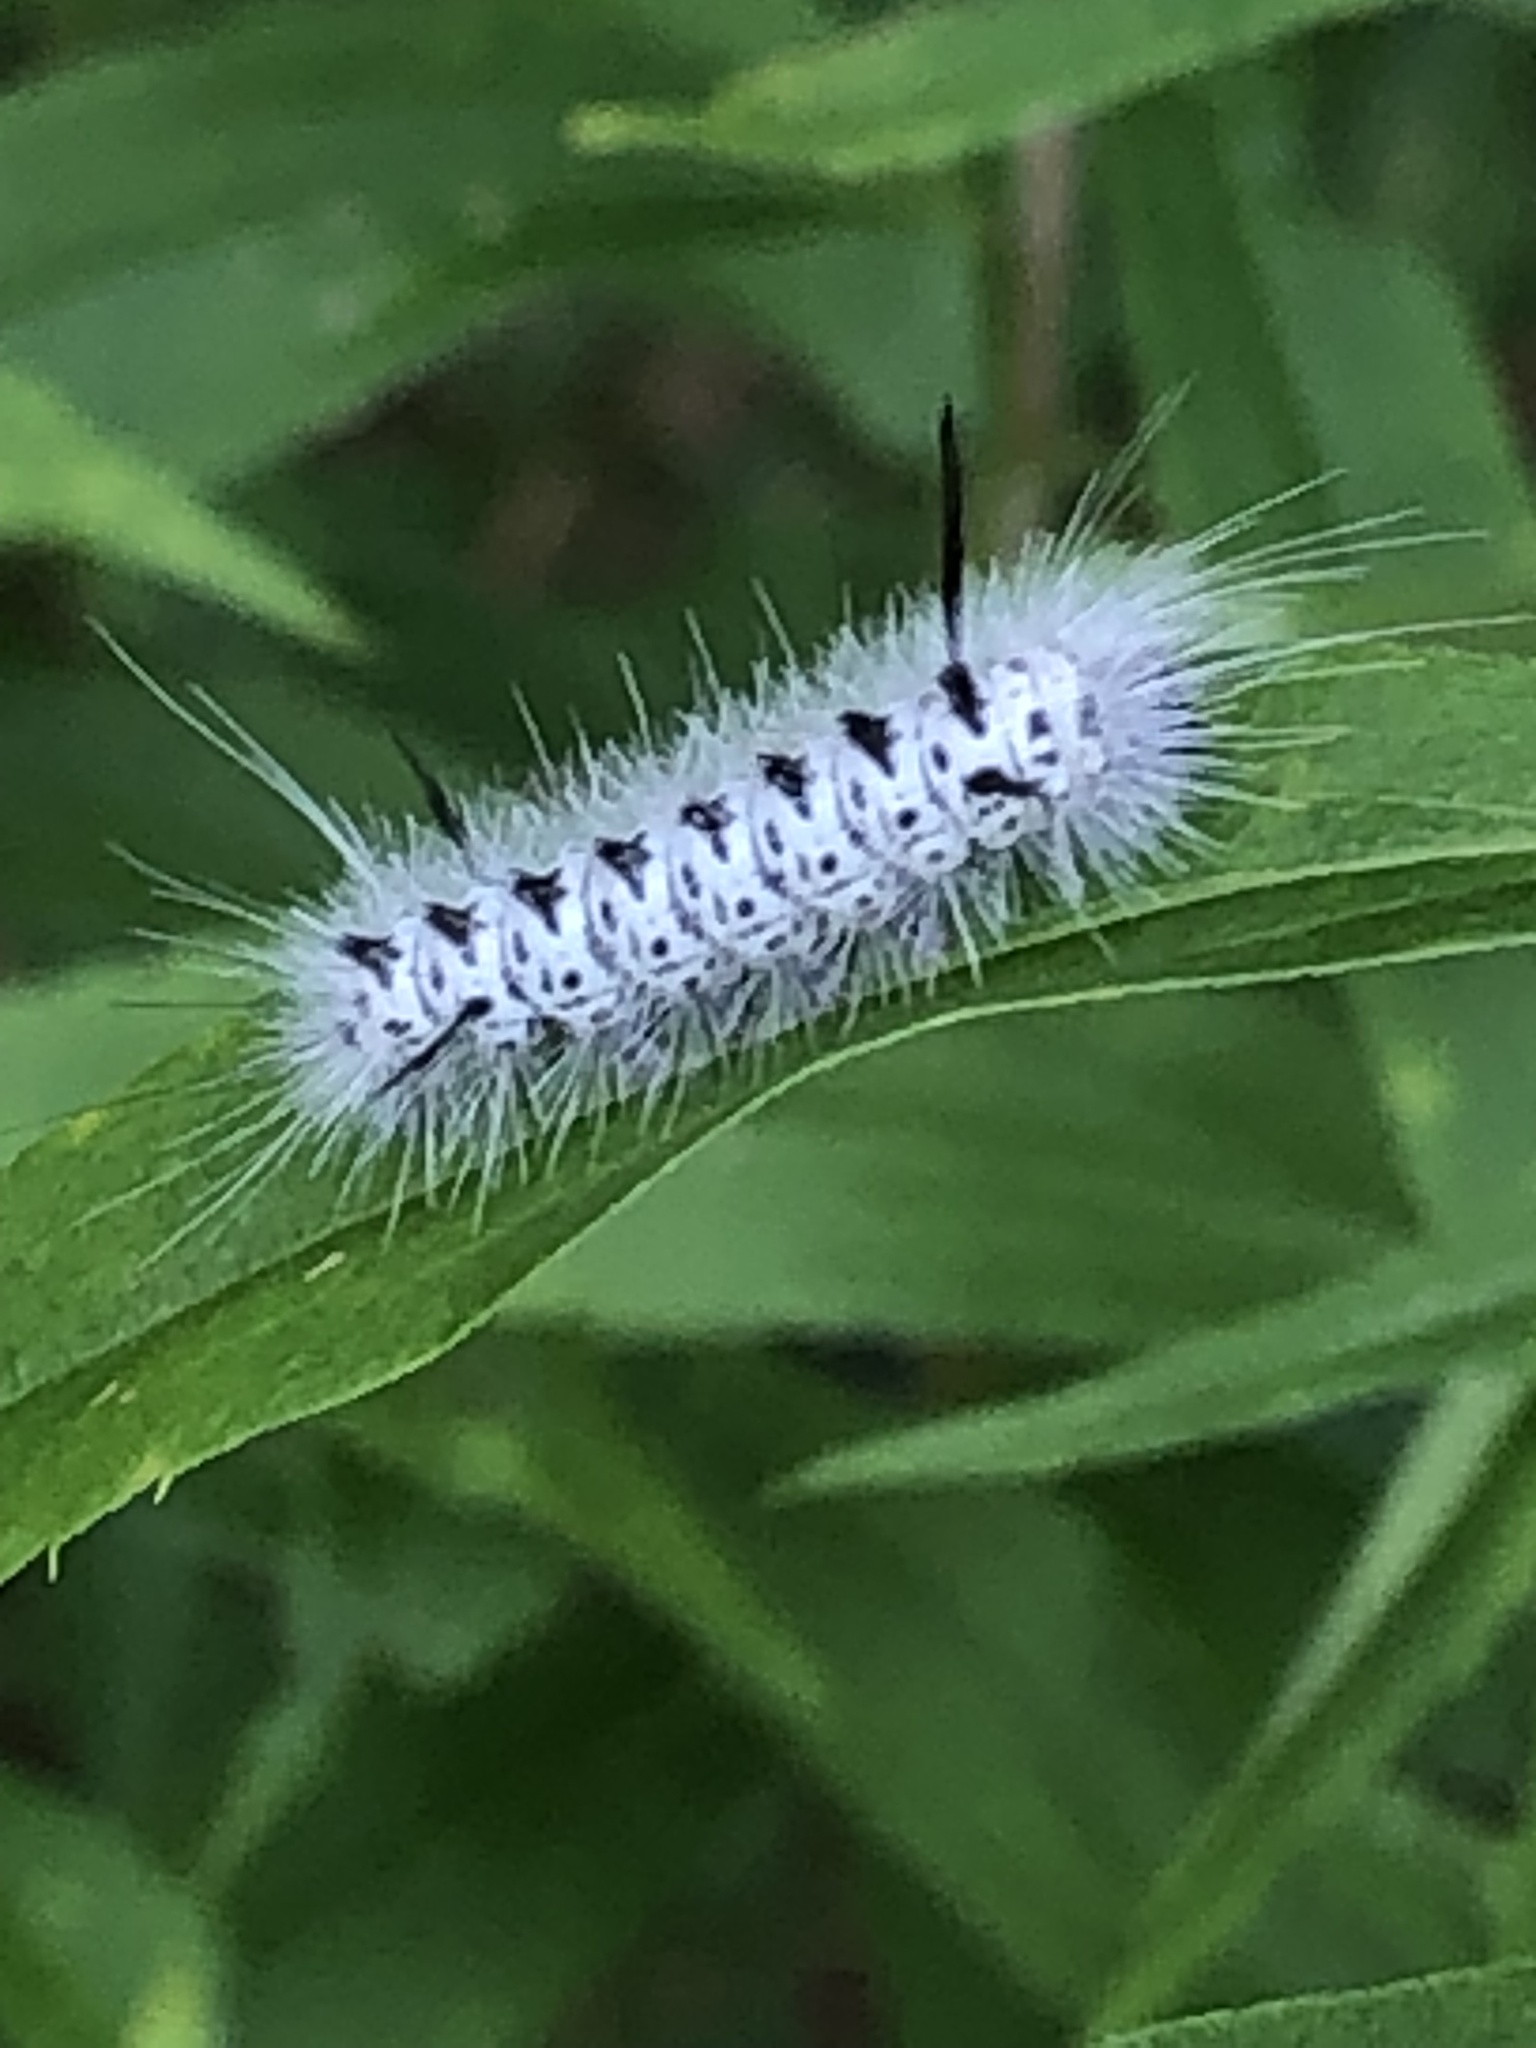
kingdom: Animalia
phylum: Arthropoda
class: Insecta
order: Lepidoptera
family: Erebidae
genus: Lophocampa
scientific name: Lophocampa caryae
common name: Hickory tussock moth
